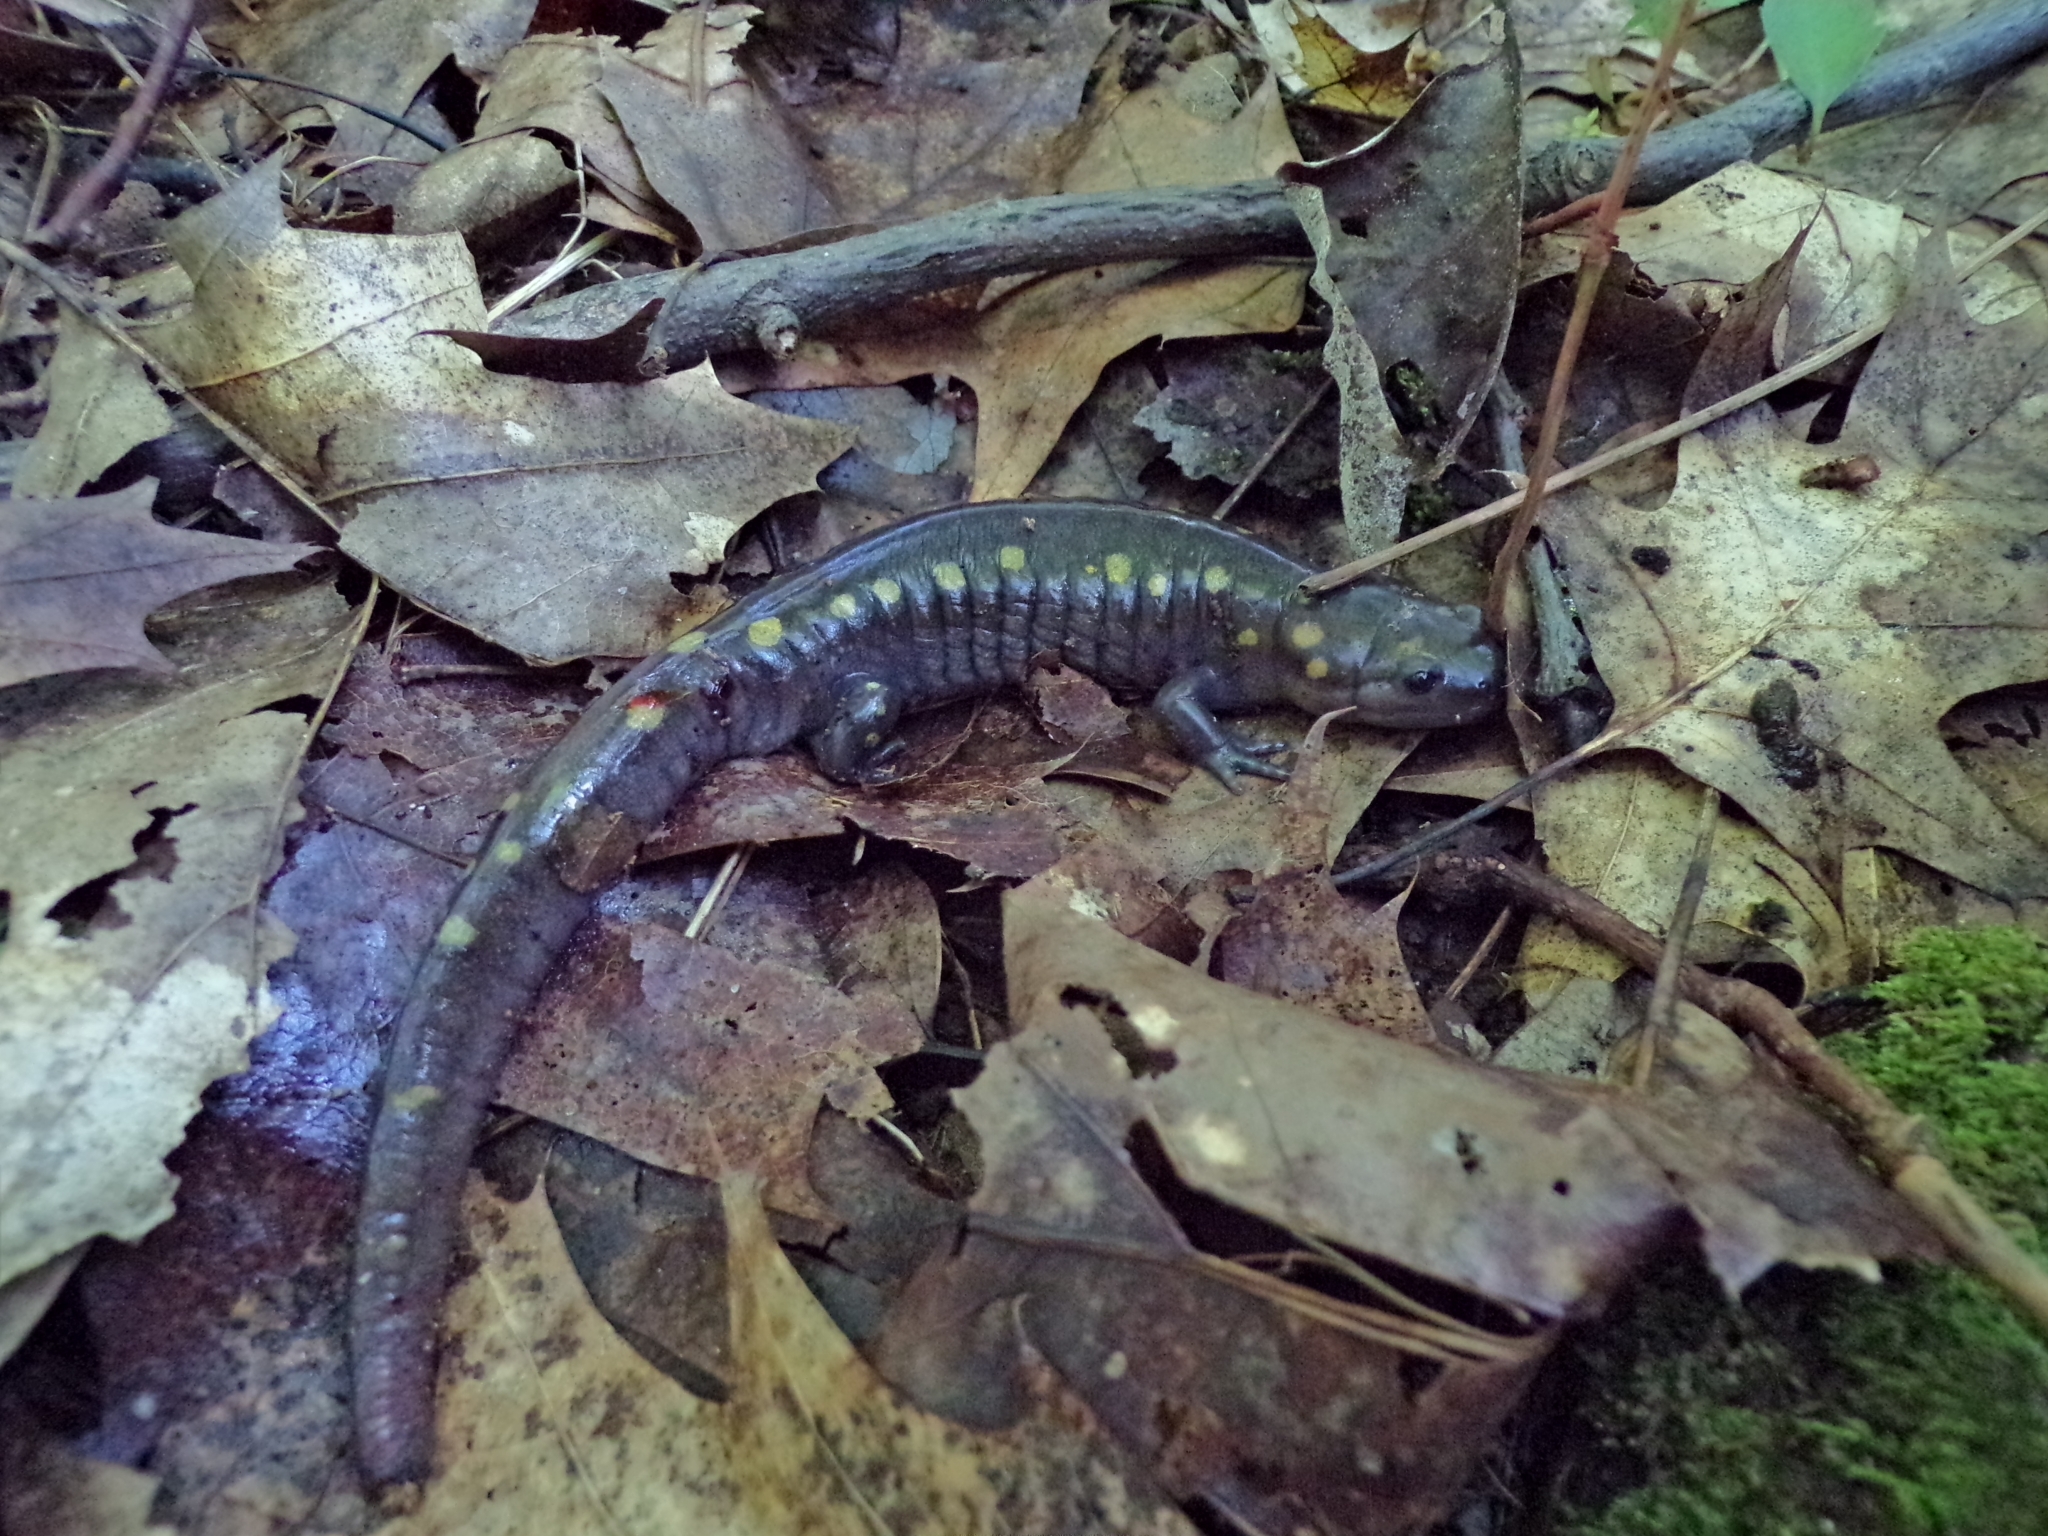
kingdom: Animalia
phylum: Chordata
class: Amphibia
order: Caudata
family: Ambystomatidae
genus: Ambystoma
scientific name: Ambystoma maculatum
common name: Spotted salamander
